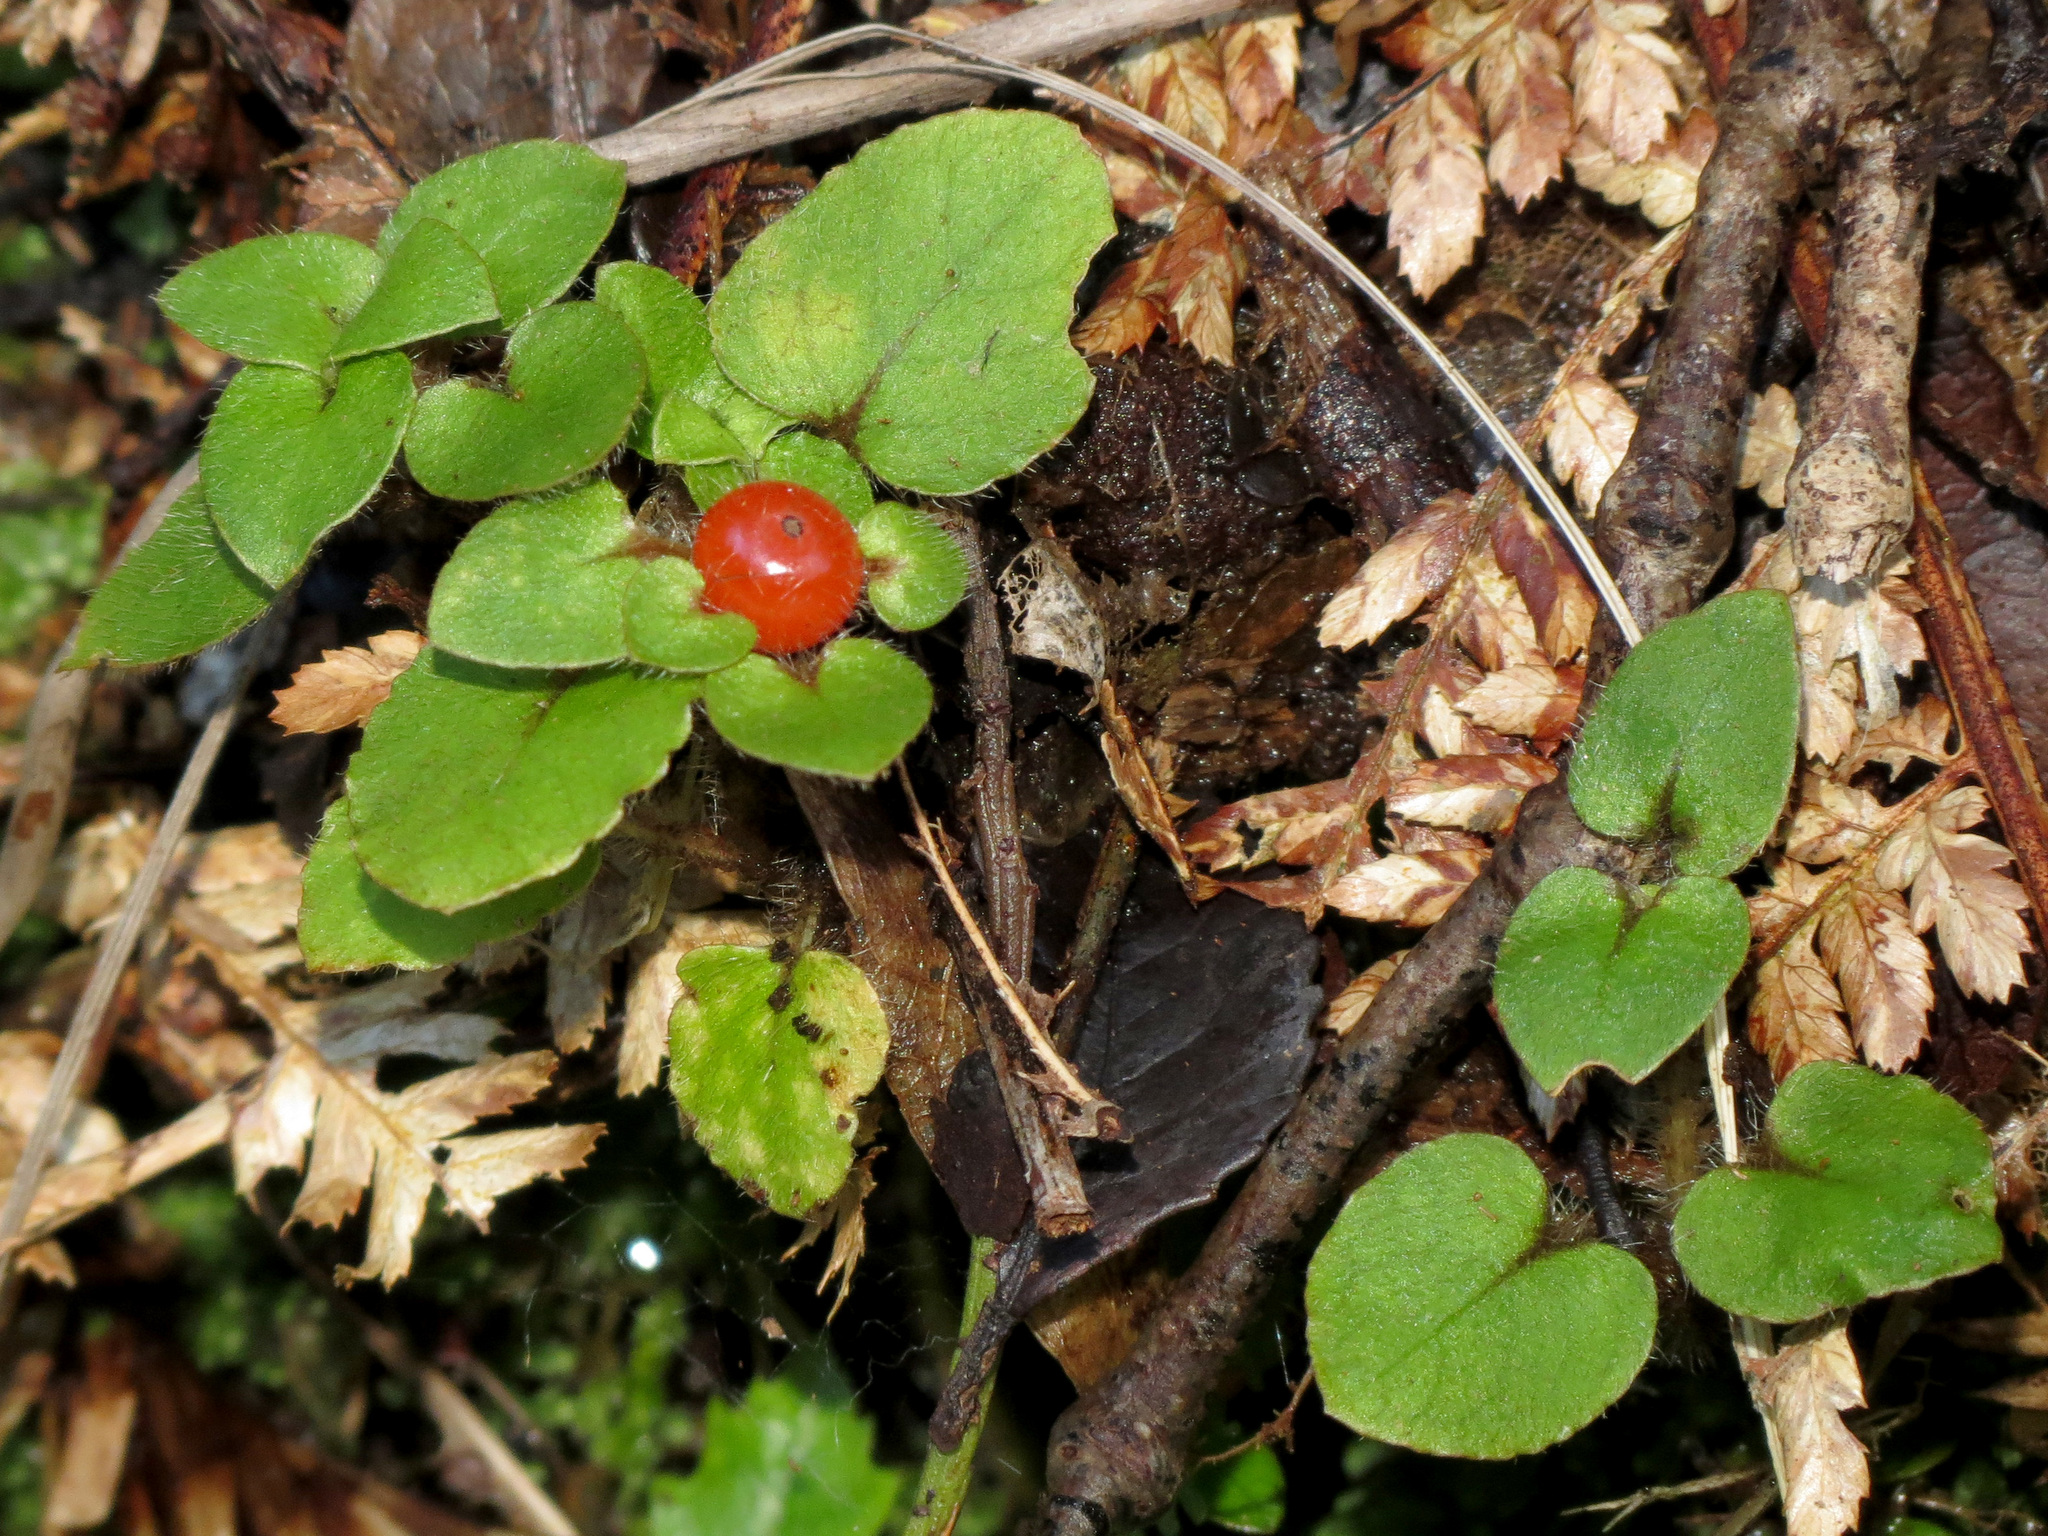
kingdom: Plantae
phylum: Tracheophyta
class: Magnoliopsida
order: Gentianales
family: Rubiaceae
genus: Nertera
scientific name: Nertera villosa
